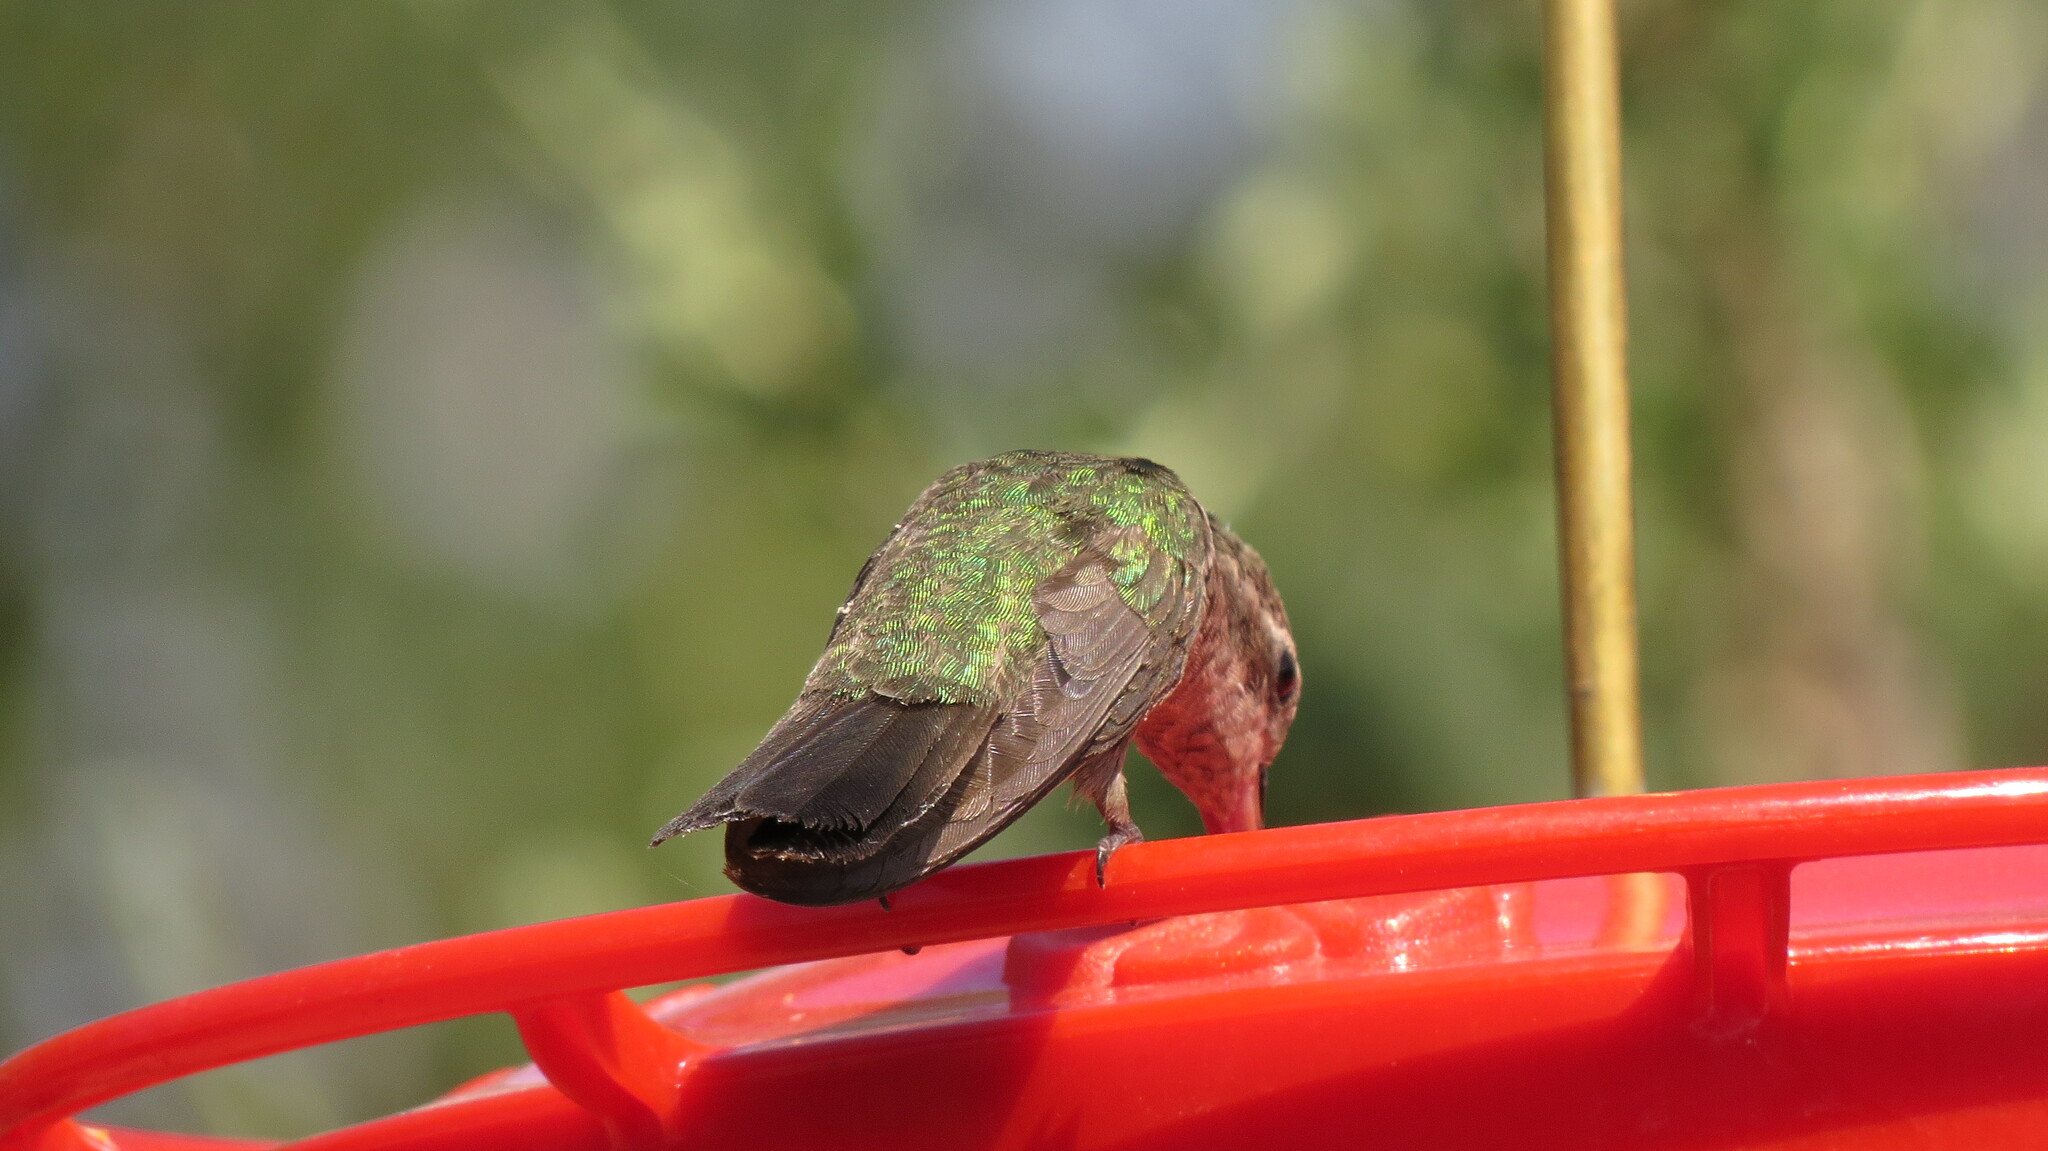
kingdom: Animalia
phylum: Chordata
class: Aves
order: Apodiformes
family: Trochilidae
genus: Cynanthus
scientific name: Cynanthus latirostris
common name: Broad-billed hummingbird
